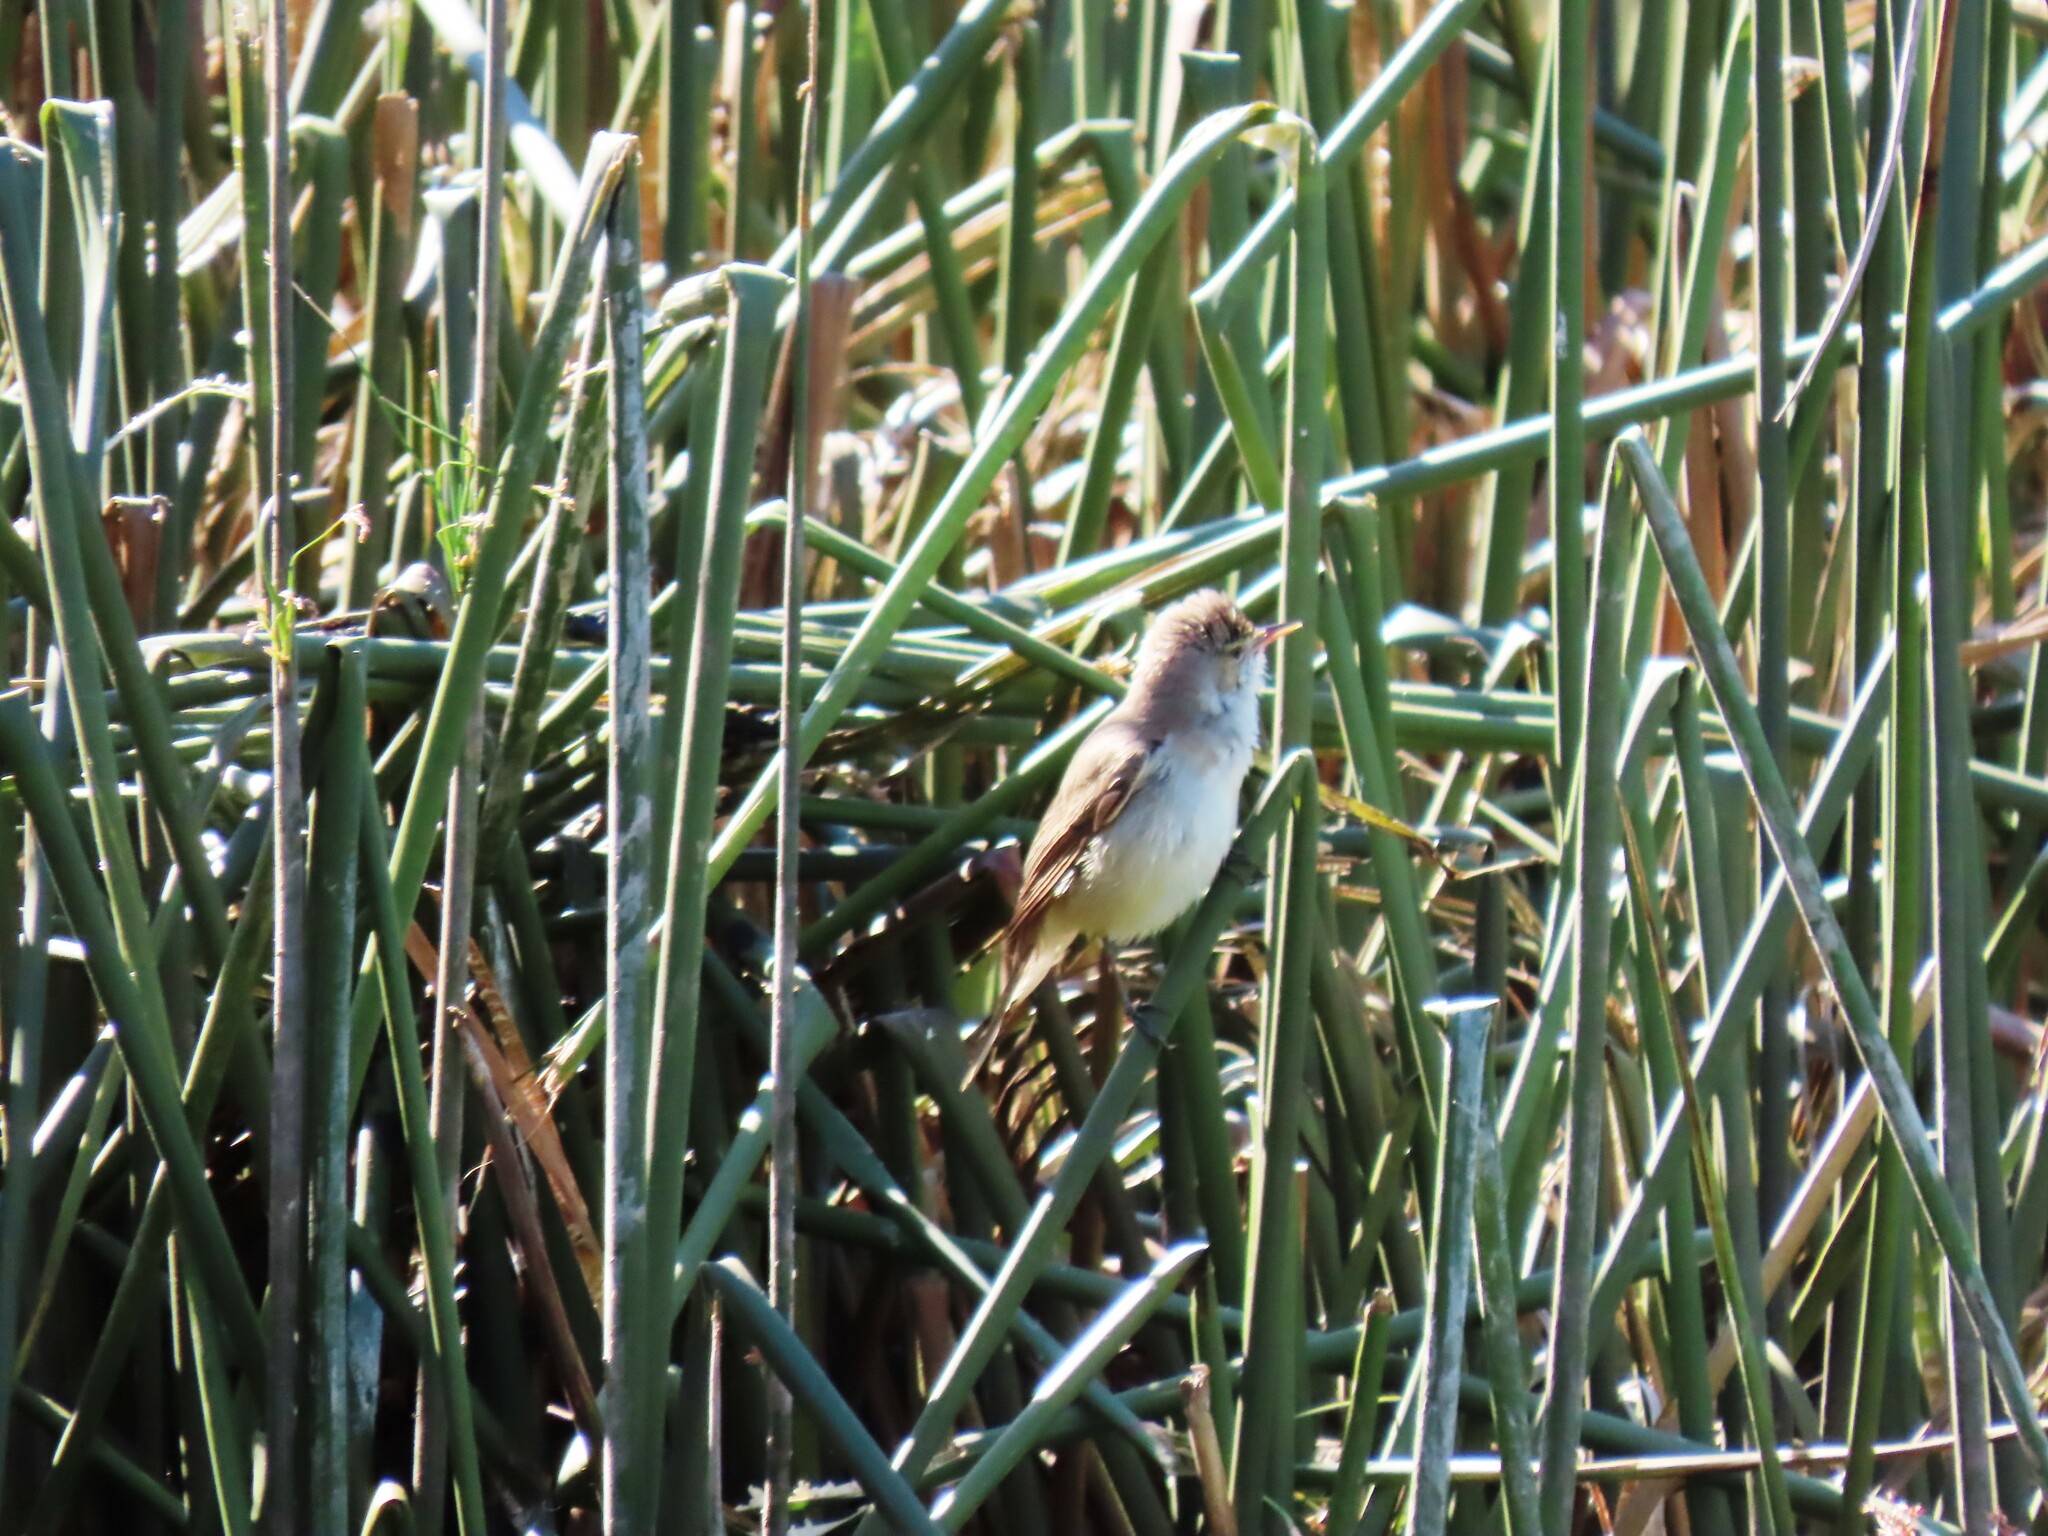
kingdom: Animalia
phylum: Chordata
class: Aves
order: Passeriformes
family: Acrocephalidae
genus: Acrocephalus
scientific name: Acrocephalus australis
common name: Australian reed warbler
